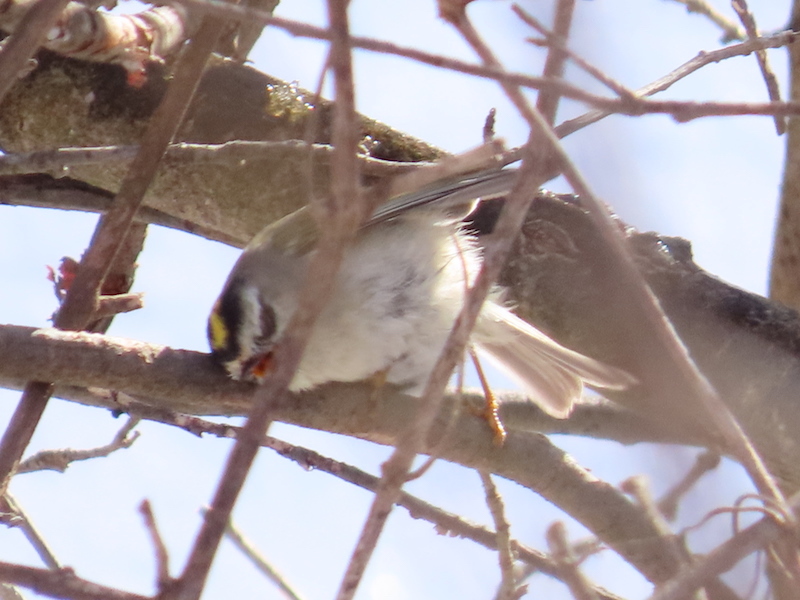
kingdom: Animalia
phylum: Chordata
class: Aves
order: Passeriformes
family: Regulidae
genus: Regulus
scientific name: Regulus satrapa
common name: Golden-crowned kinglet
